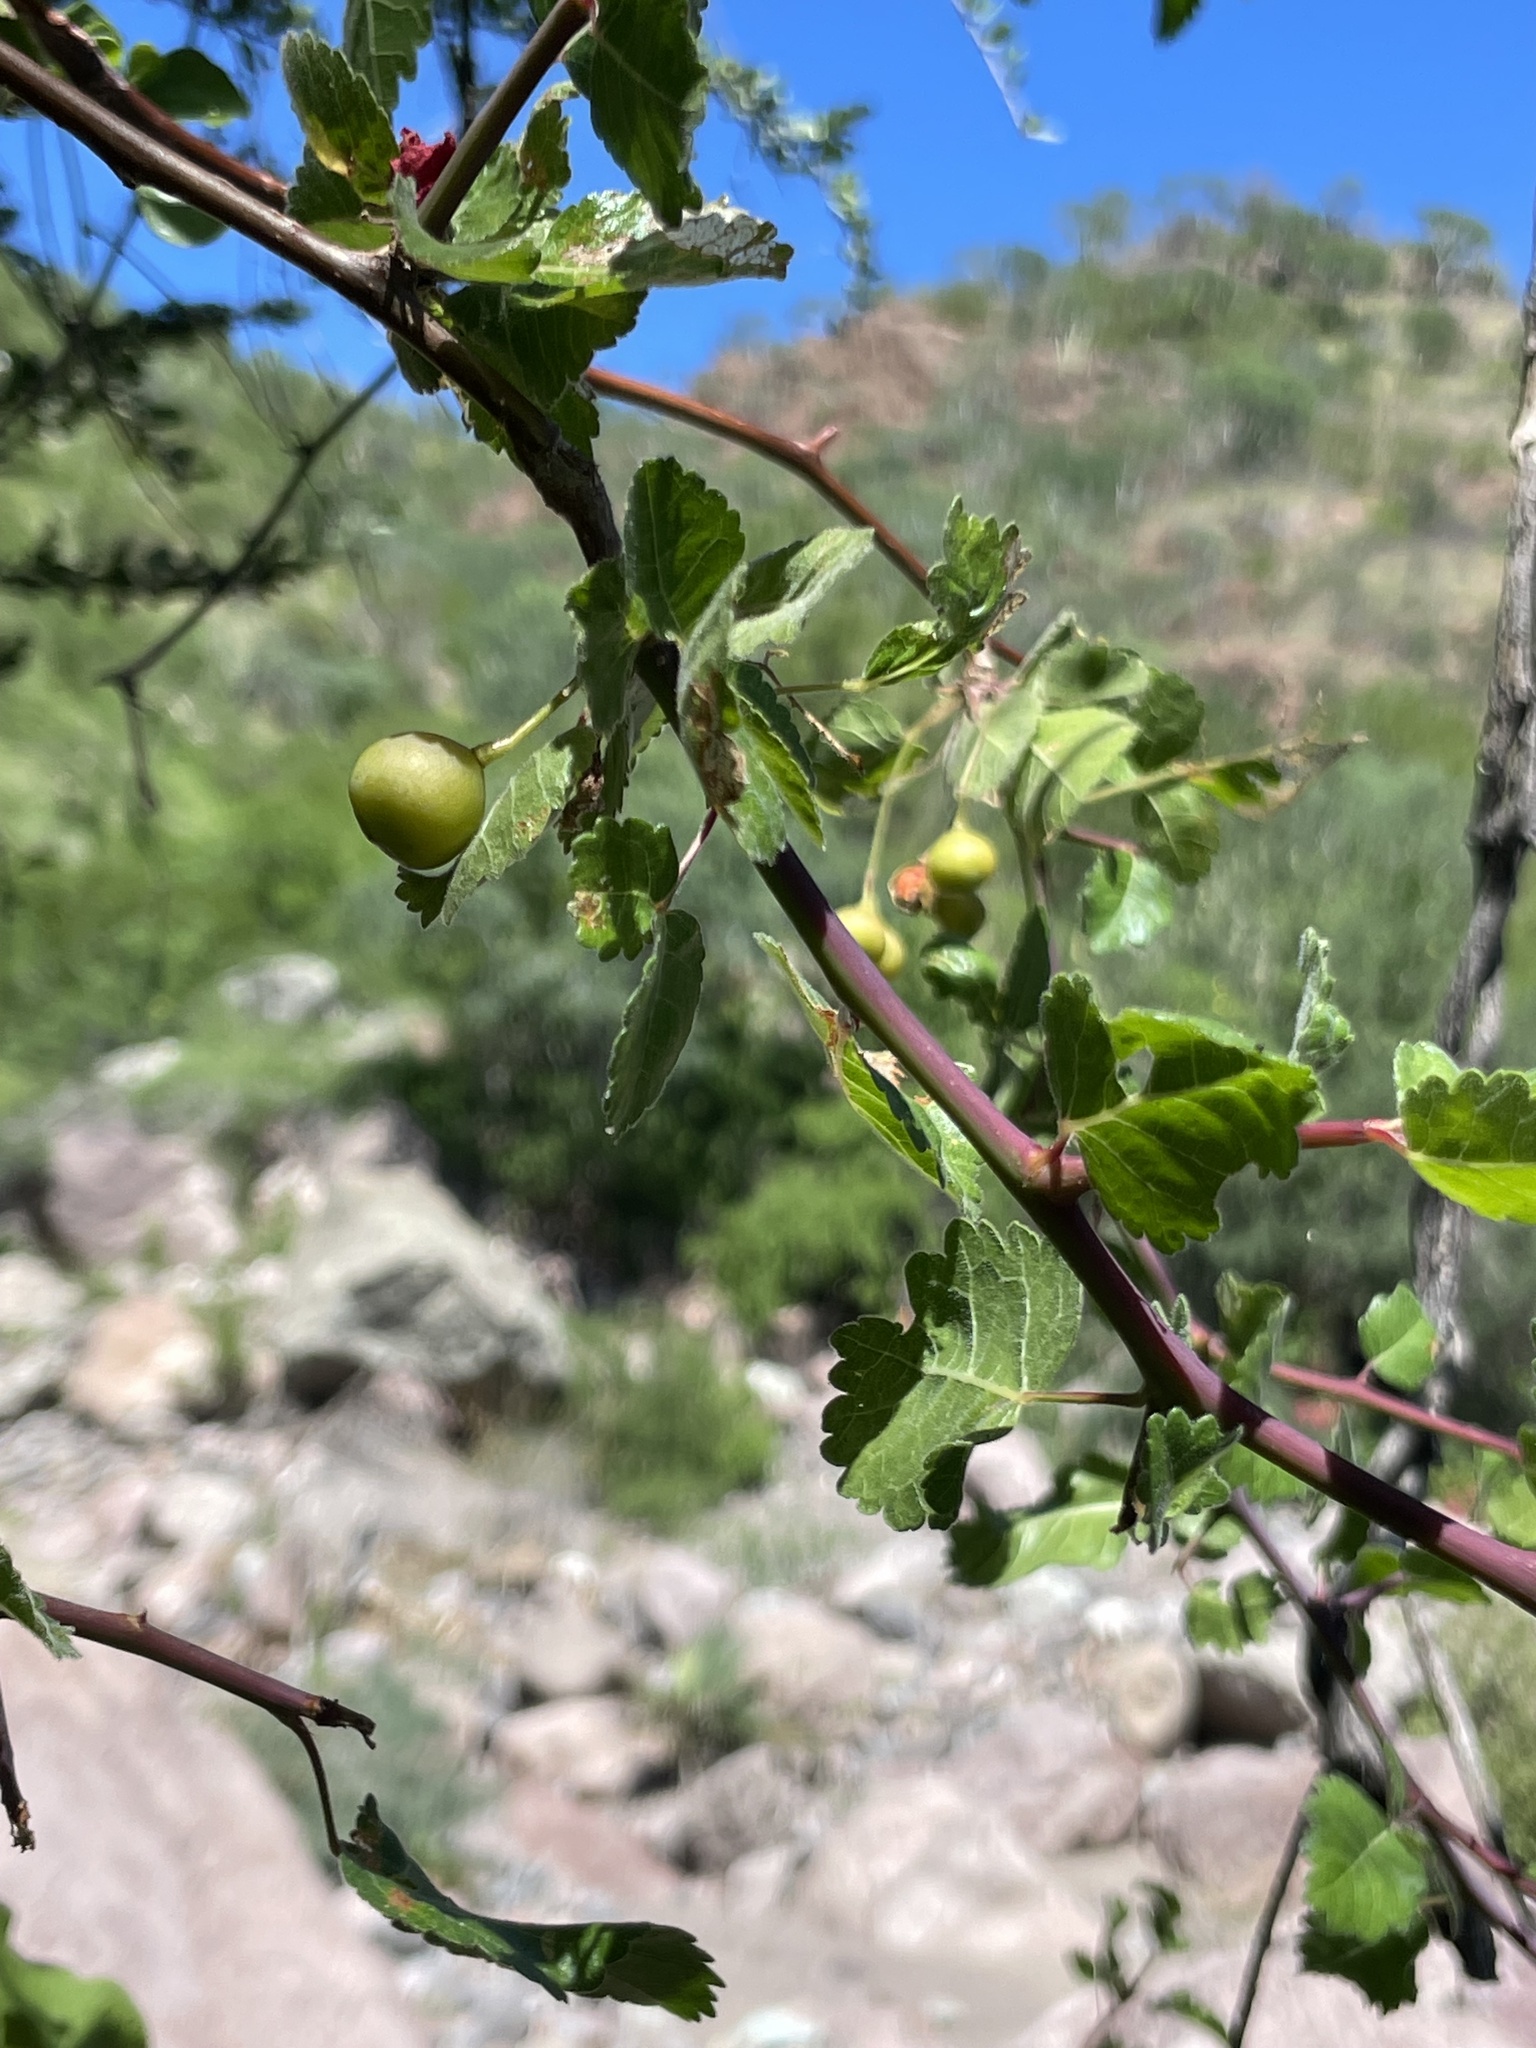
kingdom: Plantae
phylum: Tracheophyta
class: Magnoliopsida
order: Sapindales
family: Burseraceae
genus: Bursera
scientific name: Bursera epinnata
